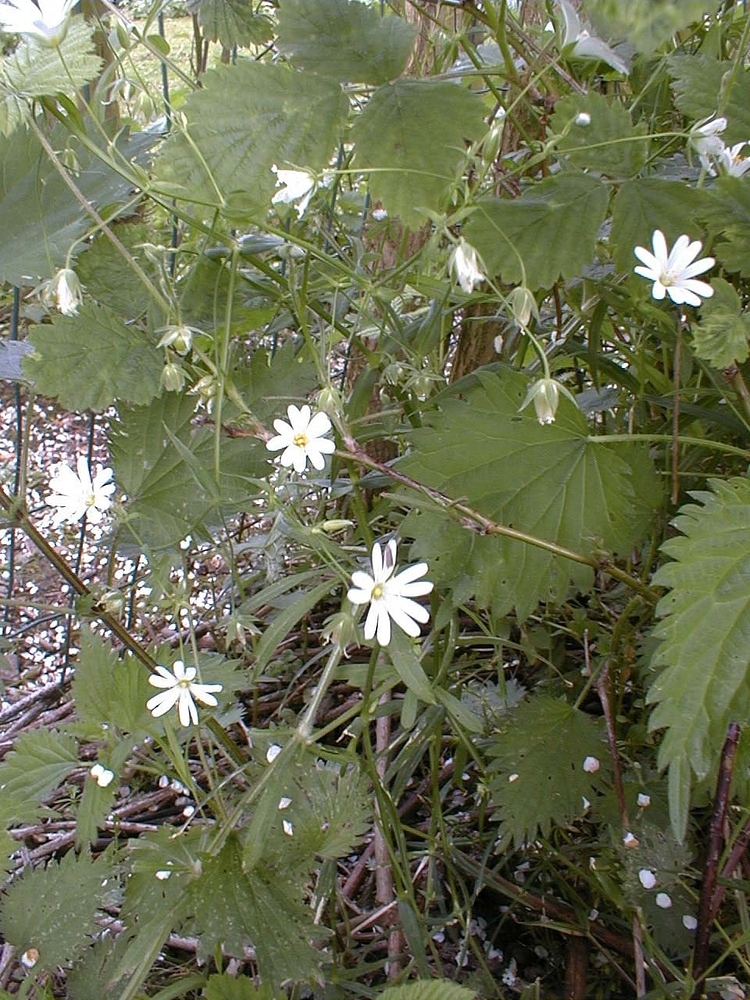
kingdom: Plantae
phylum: Tracheophyta
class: Magnoliopsida
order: Caryophyllales
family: Caryophyllaceae
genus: Rabelera
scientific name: Rabelera holostea
